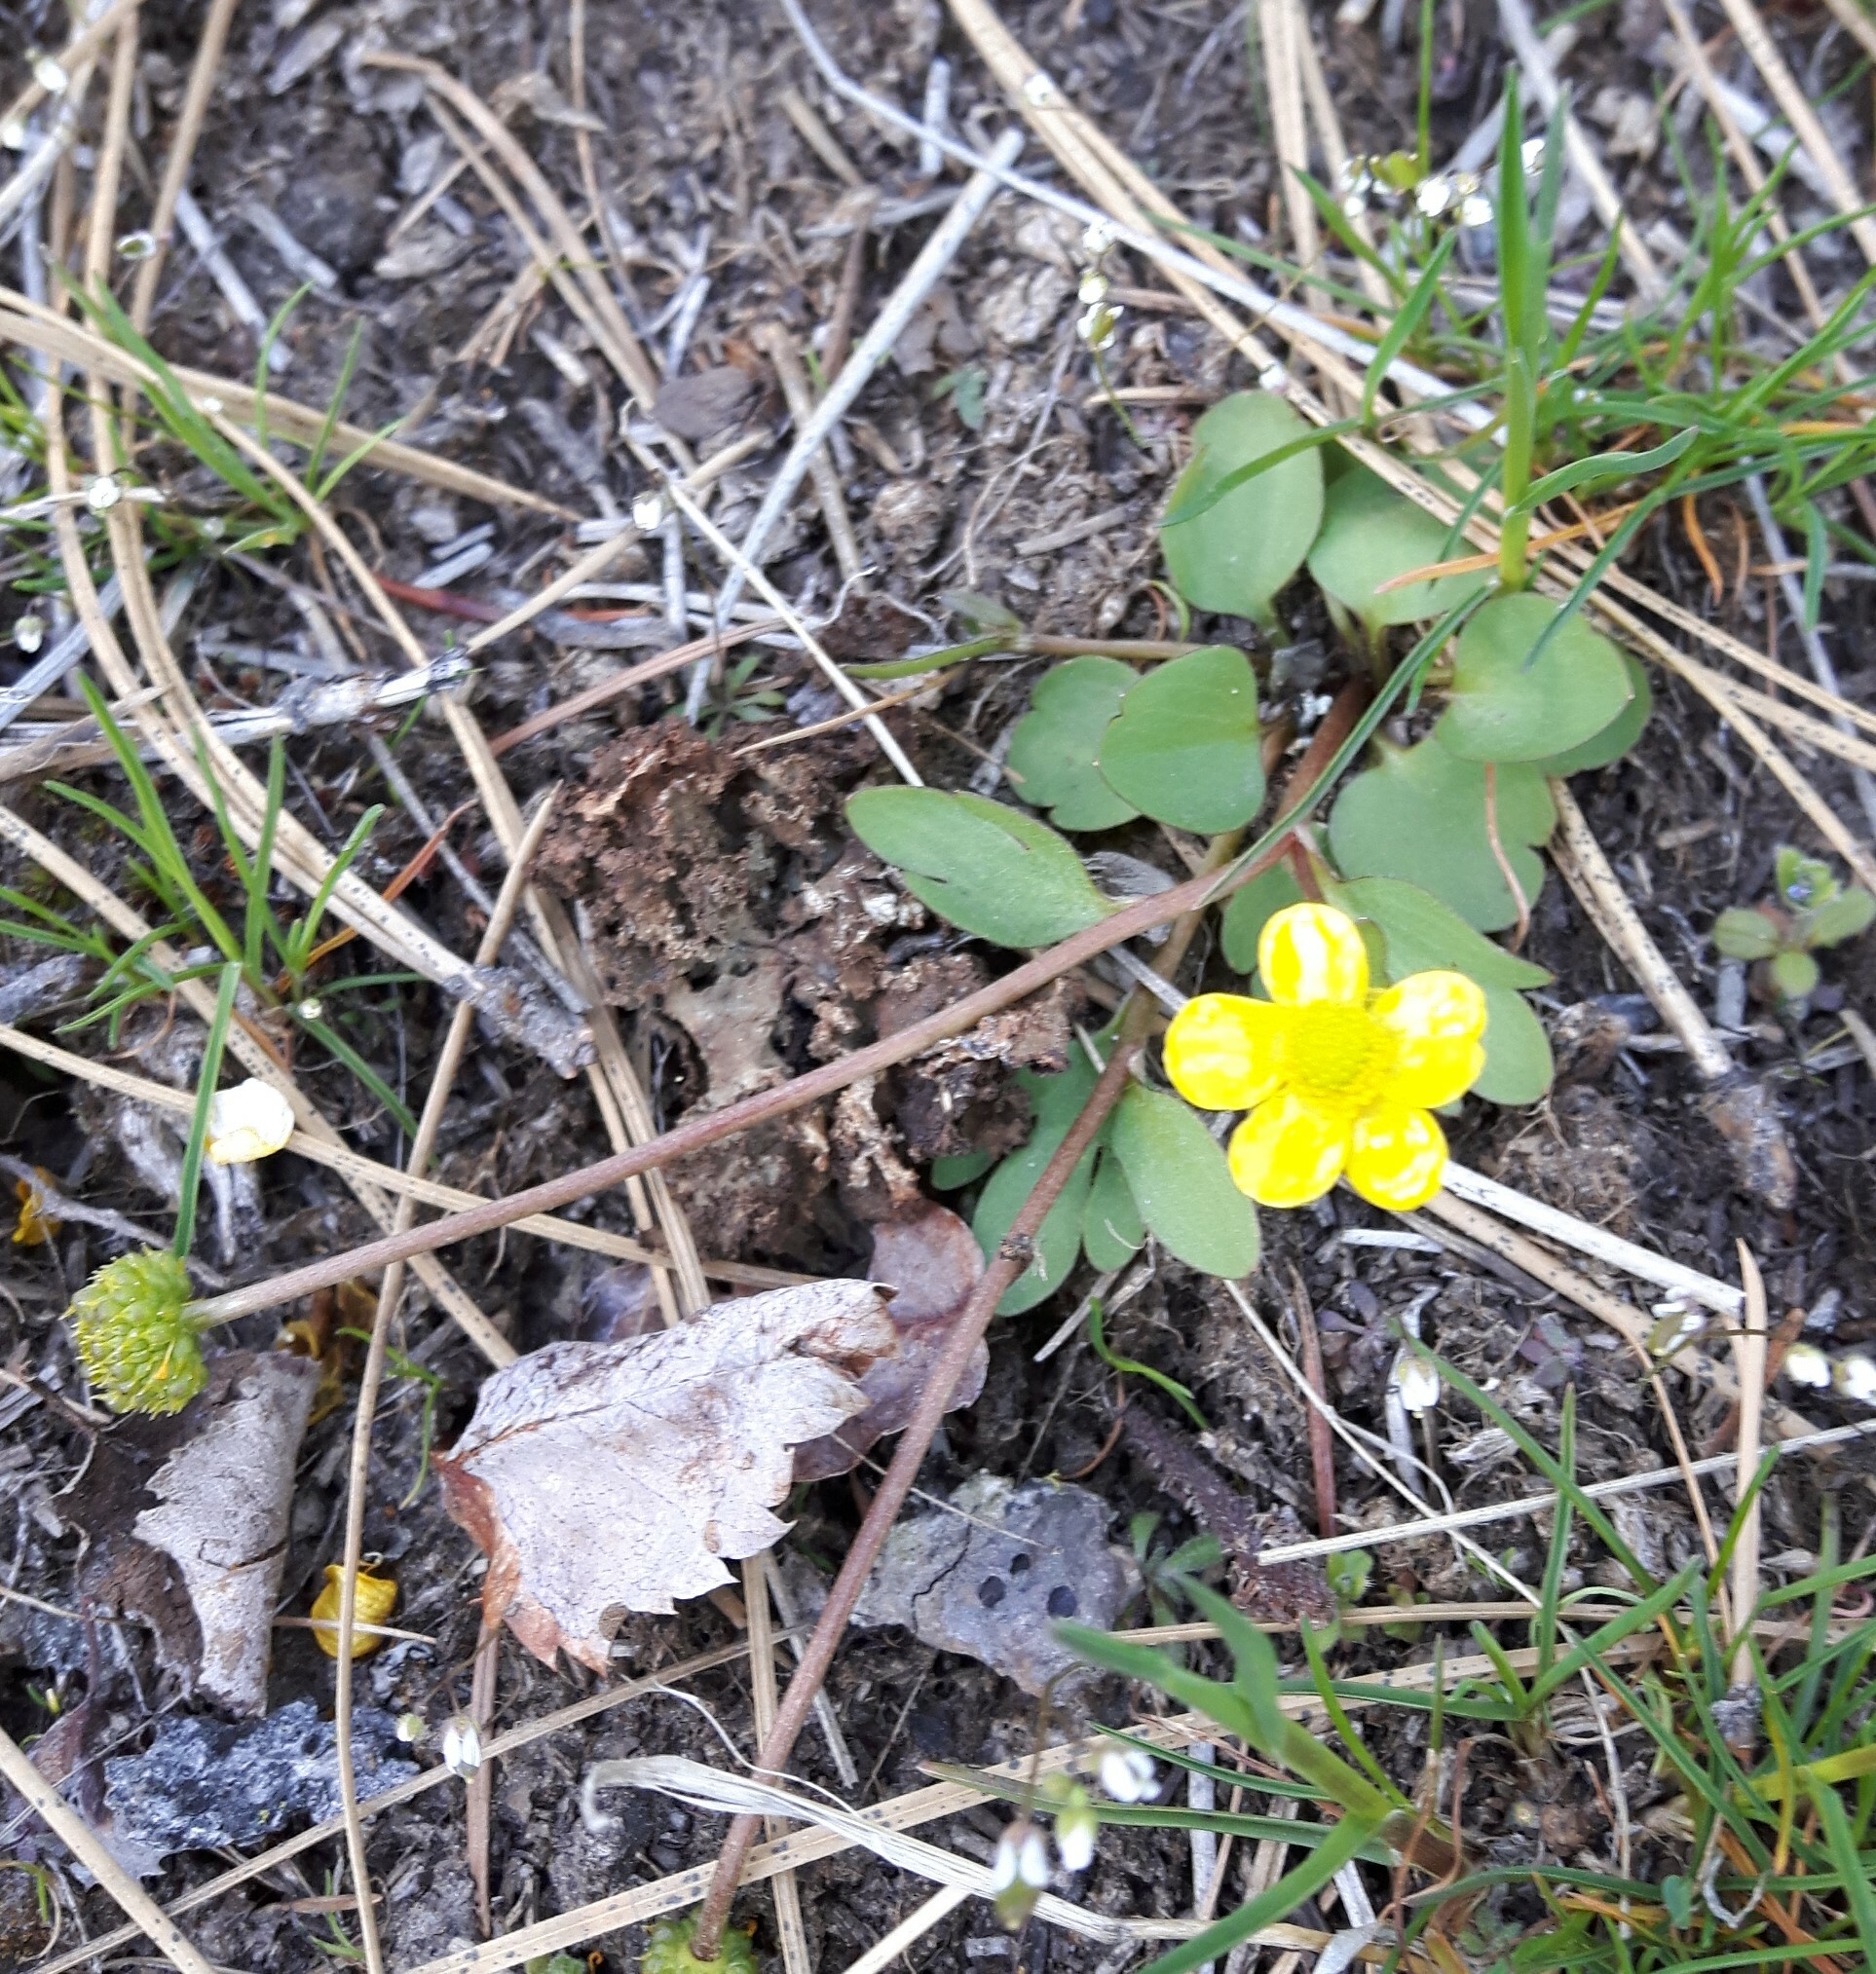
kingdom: Plantae
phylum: Tracheophyta
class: Magnoliopsida
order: Ranunculales
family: Ranunculaceae
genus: Ranunculus
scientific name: Ranunculus glaberrimus
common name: Sagebrush buttercup
